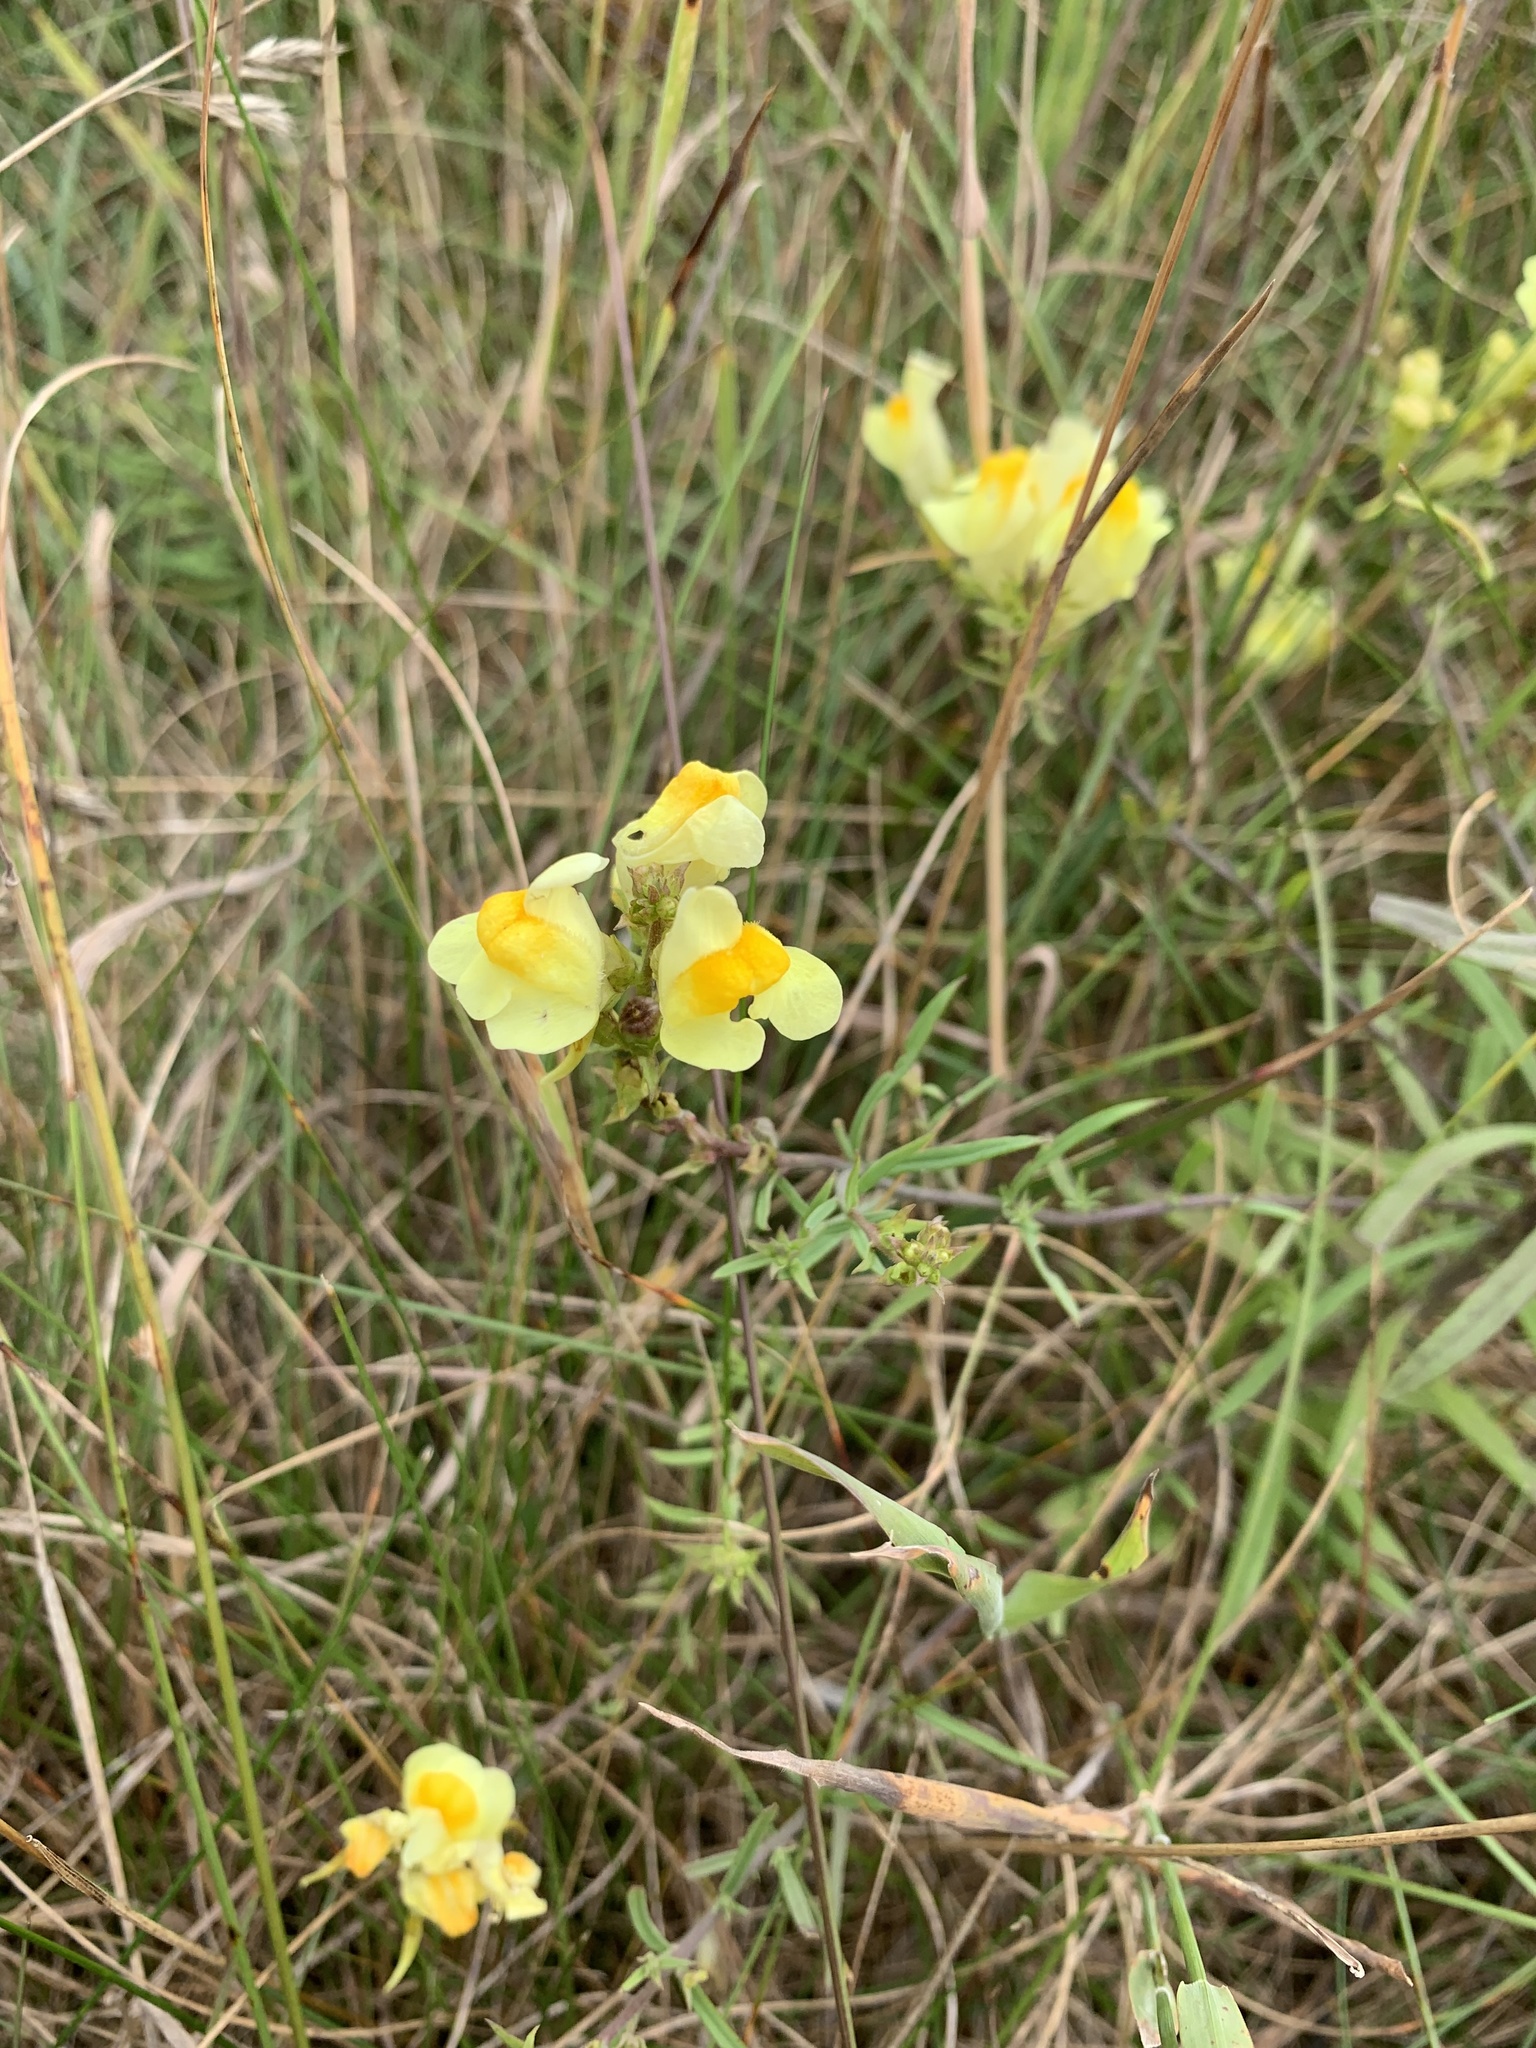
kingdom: Plantae
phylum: Tracheophyta
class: Magnoliopsida
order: Lamiales
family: Plantaginaceae
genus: Linaria
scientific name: Linaria vulgaris
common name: Butter and eggs
